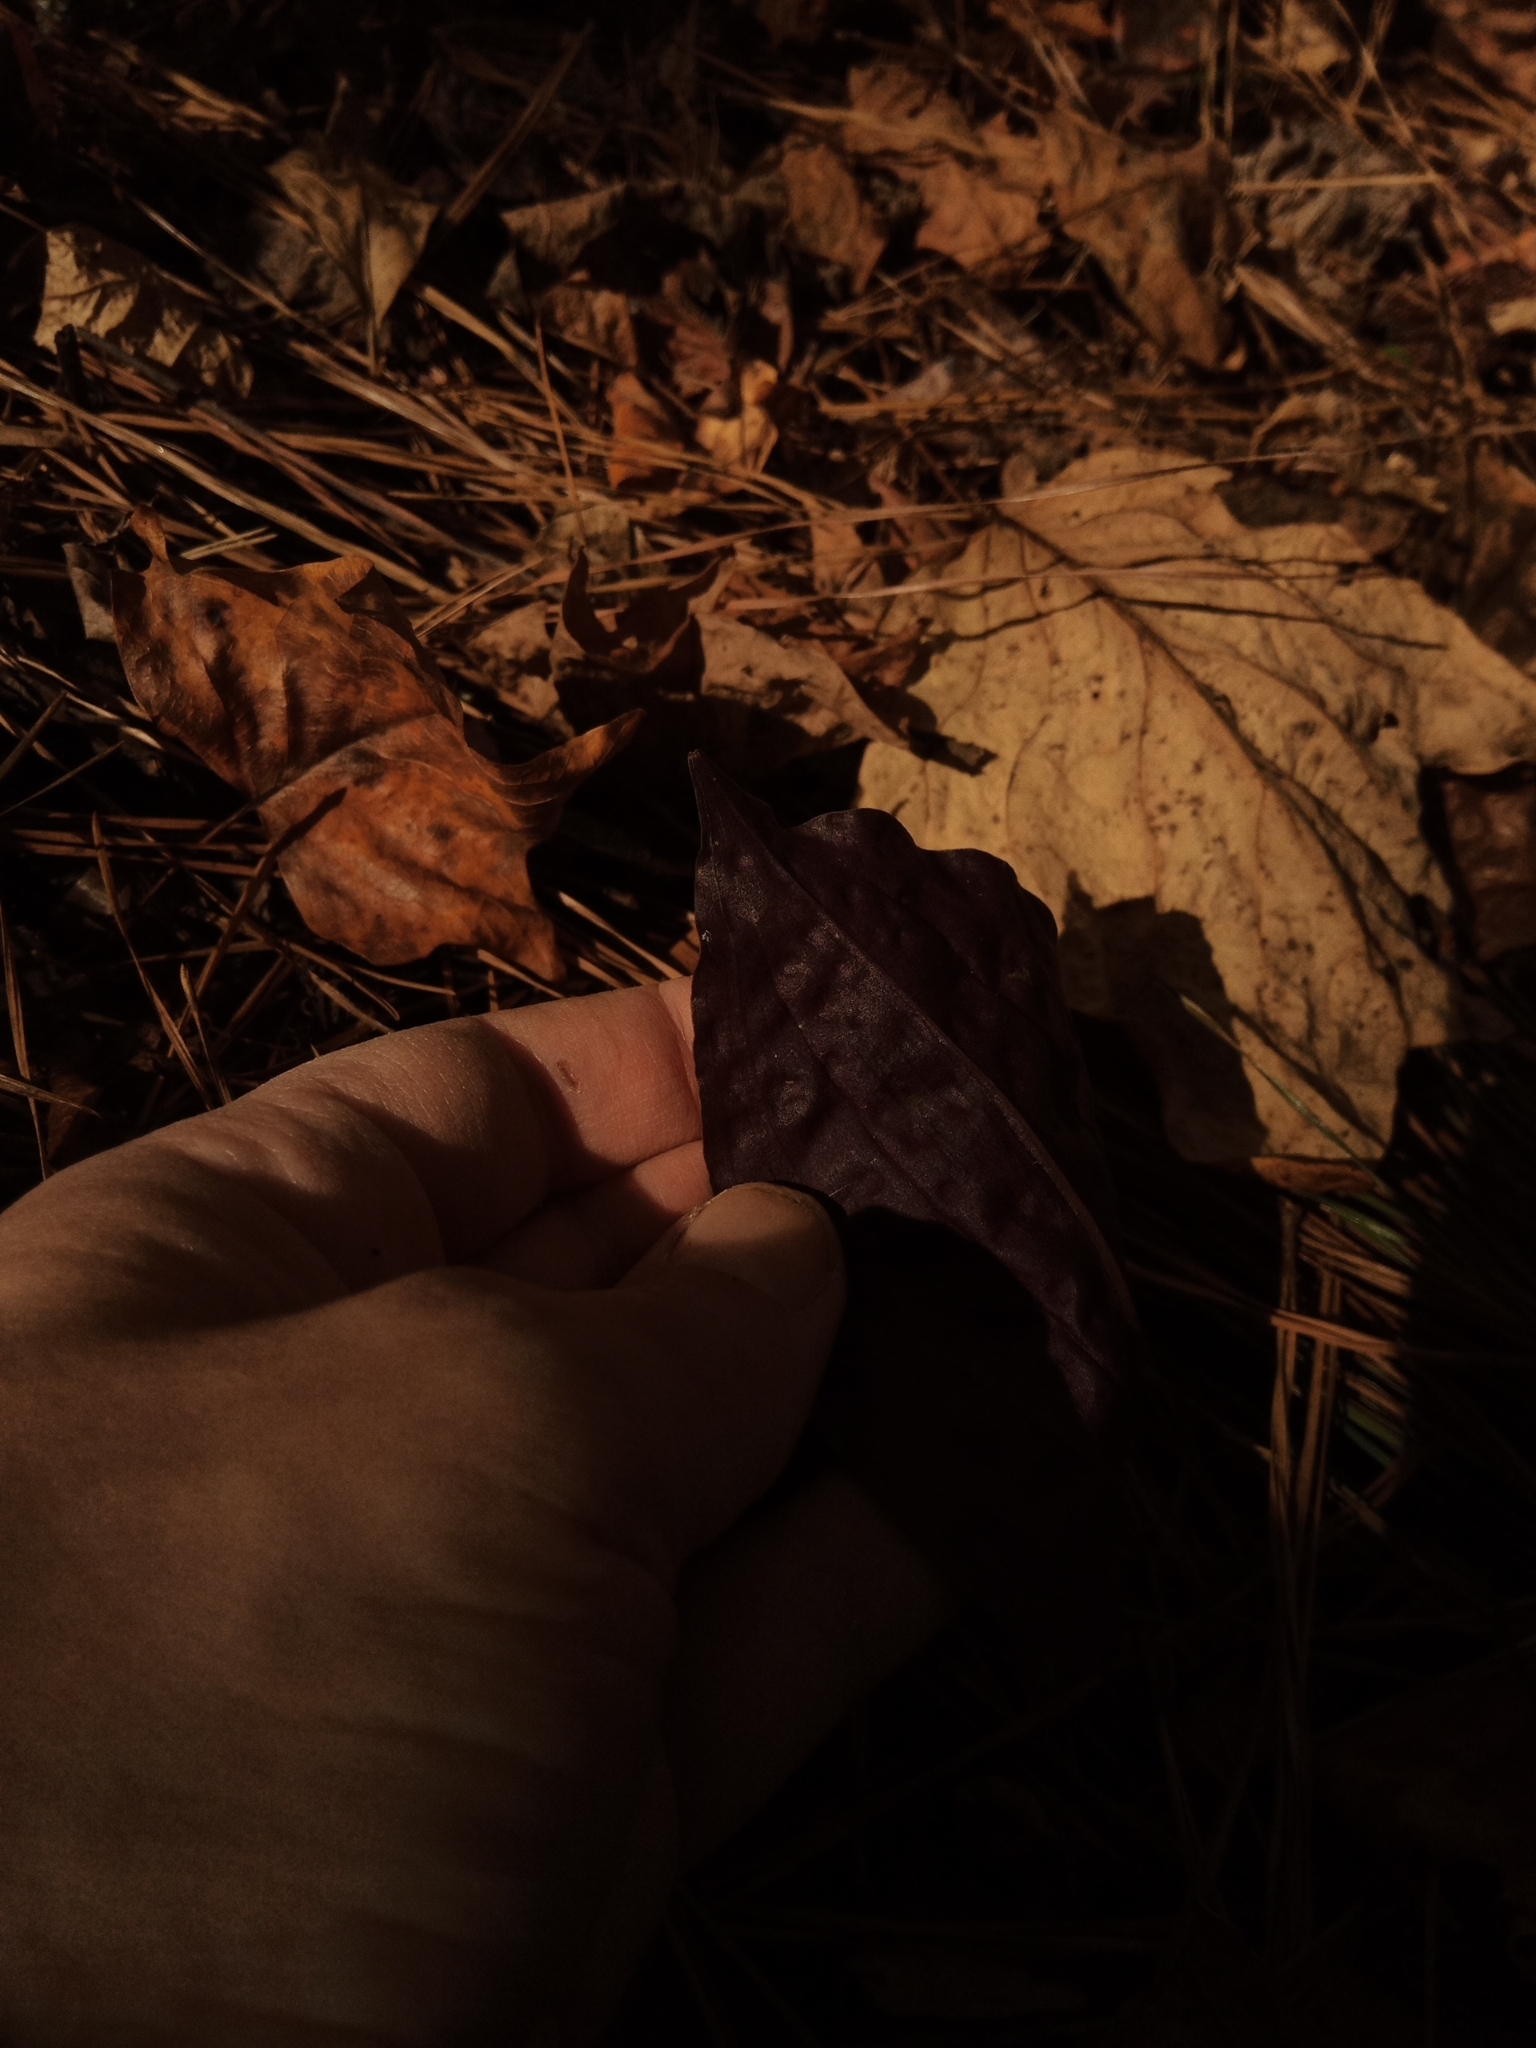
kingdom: Plantae
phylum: Tracheophyta
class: Liliopsida
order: Asparagales
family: Orchidaceae
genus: Tipularia
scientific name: Tipularia discolor
